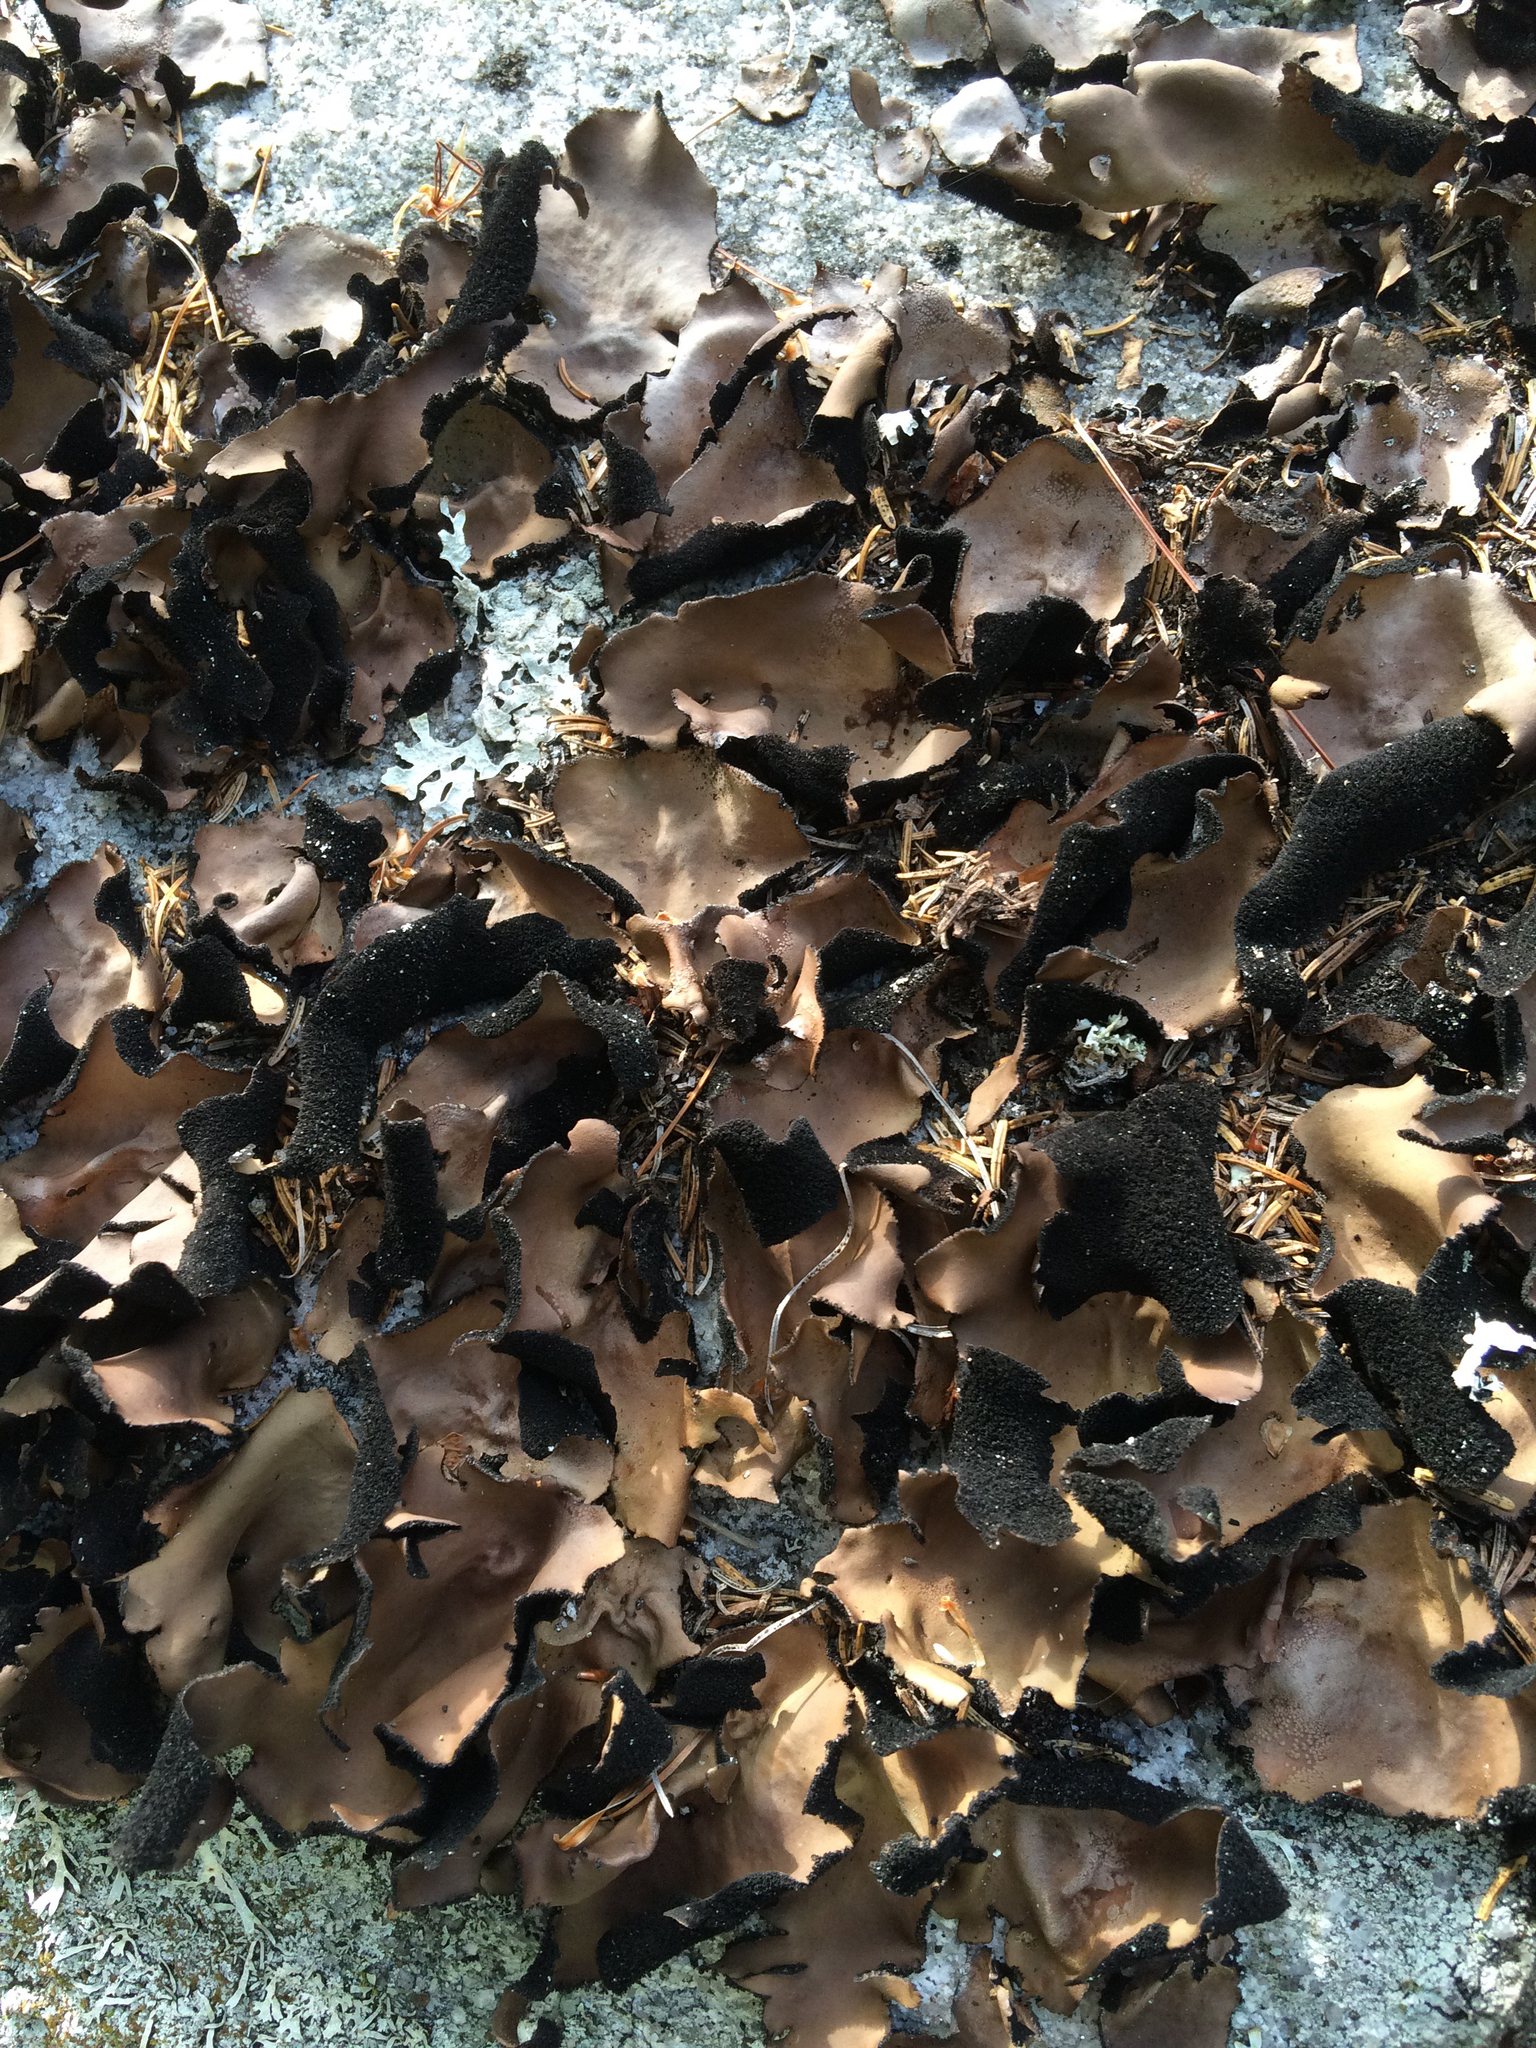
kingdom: Fungi
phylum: Ascomycota
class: Lecanoromycetes
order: Umbilicariales
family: Umbilicariaceae
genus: Umbilicaria
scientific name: Umbilicaria mammulata
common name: Smooth rock tripe
